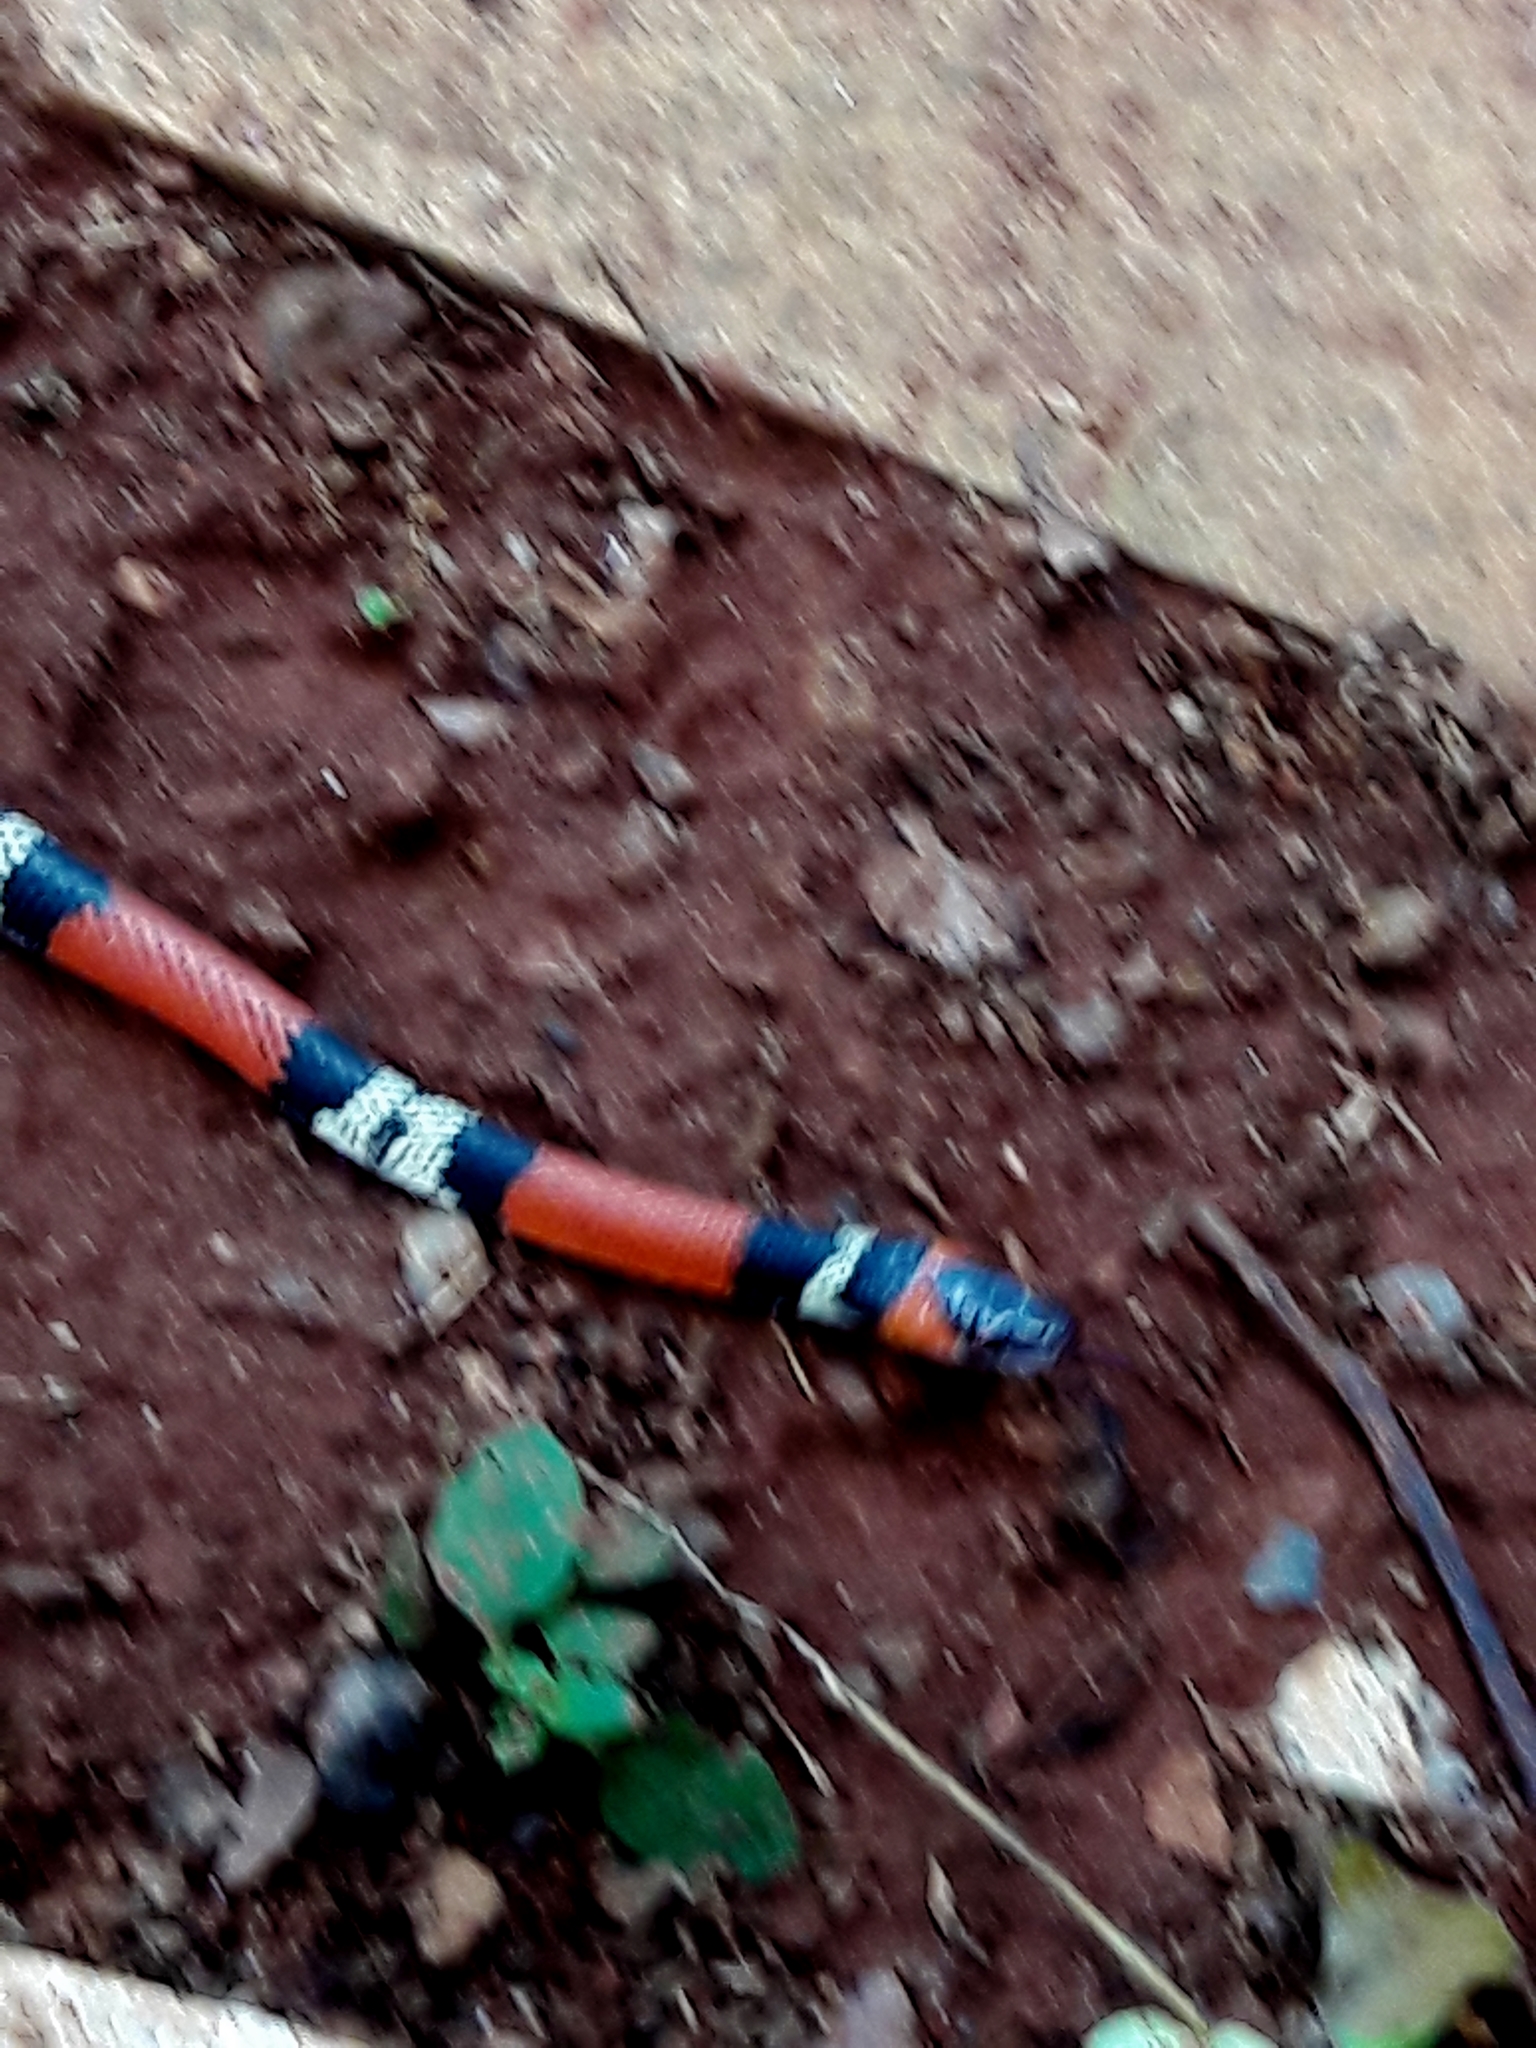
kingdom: Animalia
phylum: Chordata
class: Squamata
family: Colubridae
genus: Oxyrhopus
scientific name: Oxyrhopus guibei
